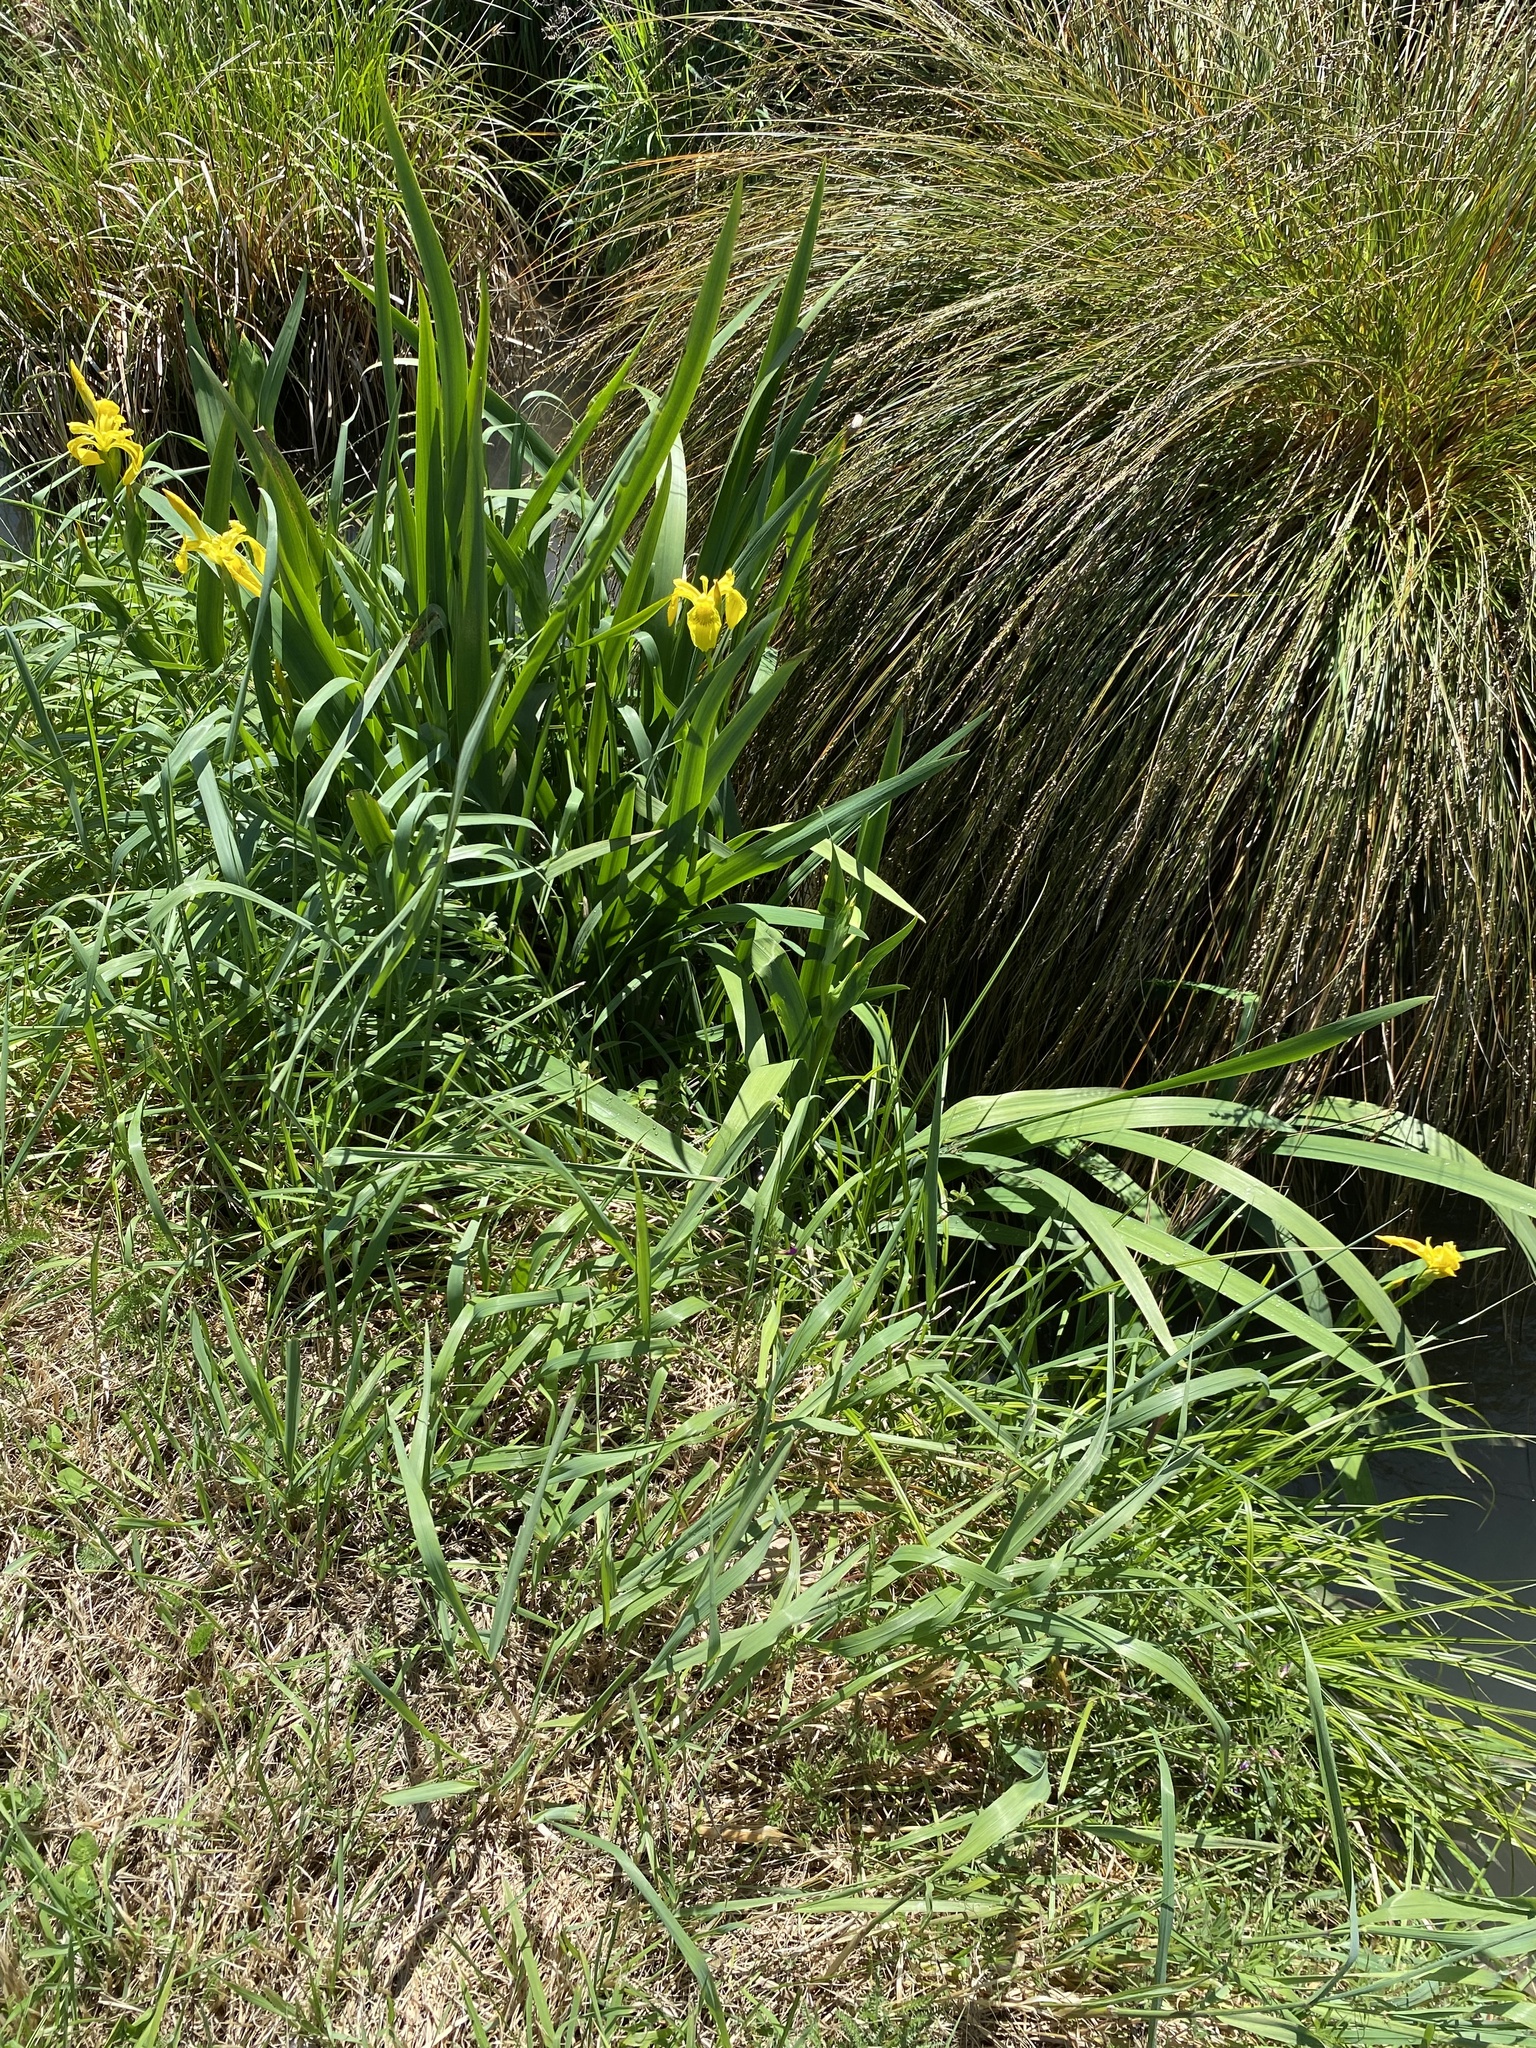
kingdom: Plantae
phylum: Tracheophyta
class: Liliopsida
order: Asparagales
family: Iridaceae
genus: Iris
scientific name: Iris pseudacorus
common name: Yellow flag
